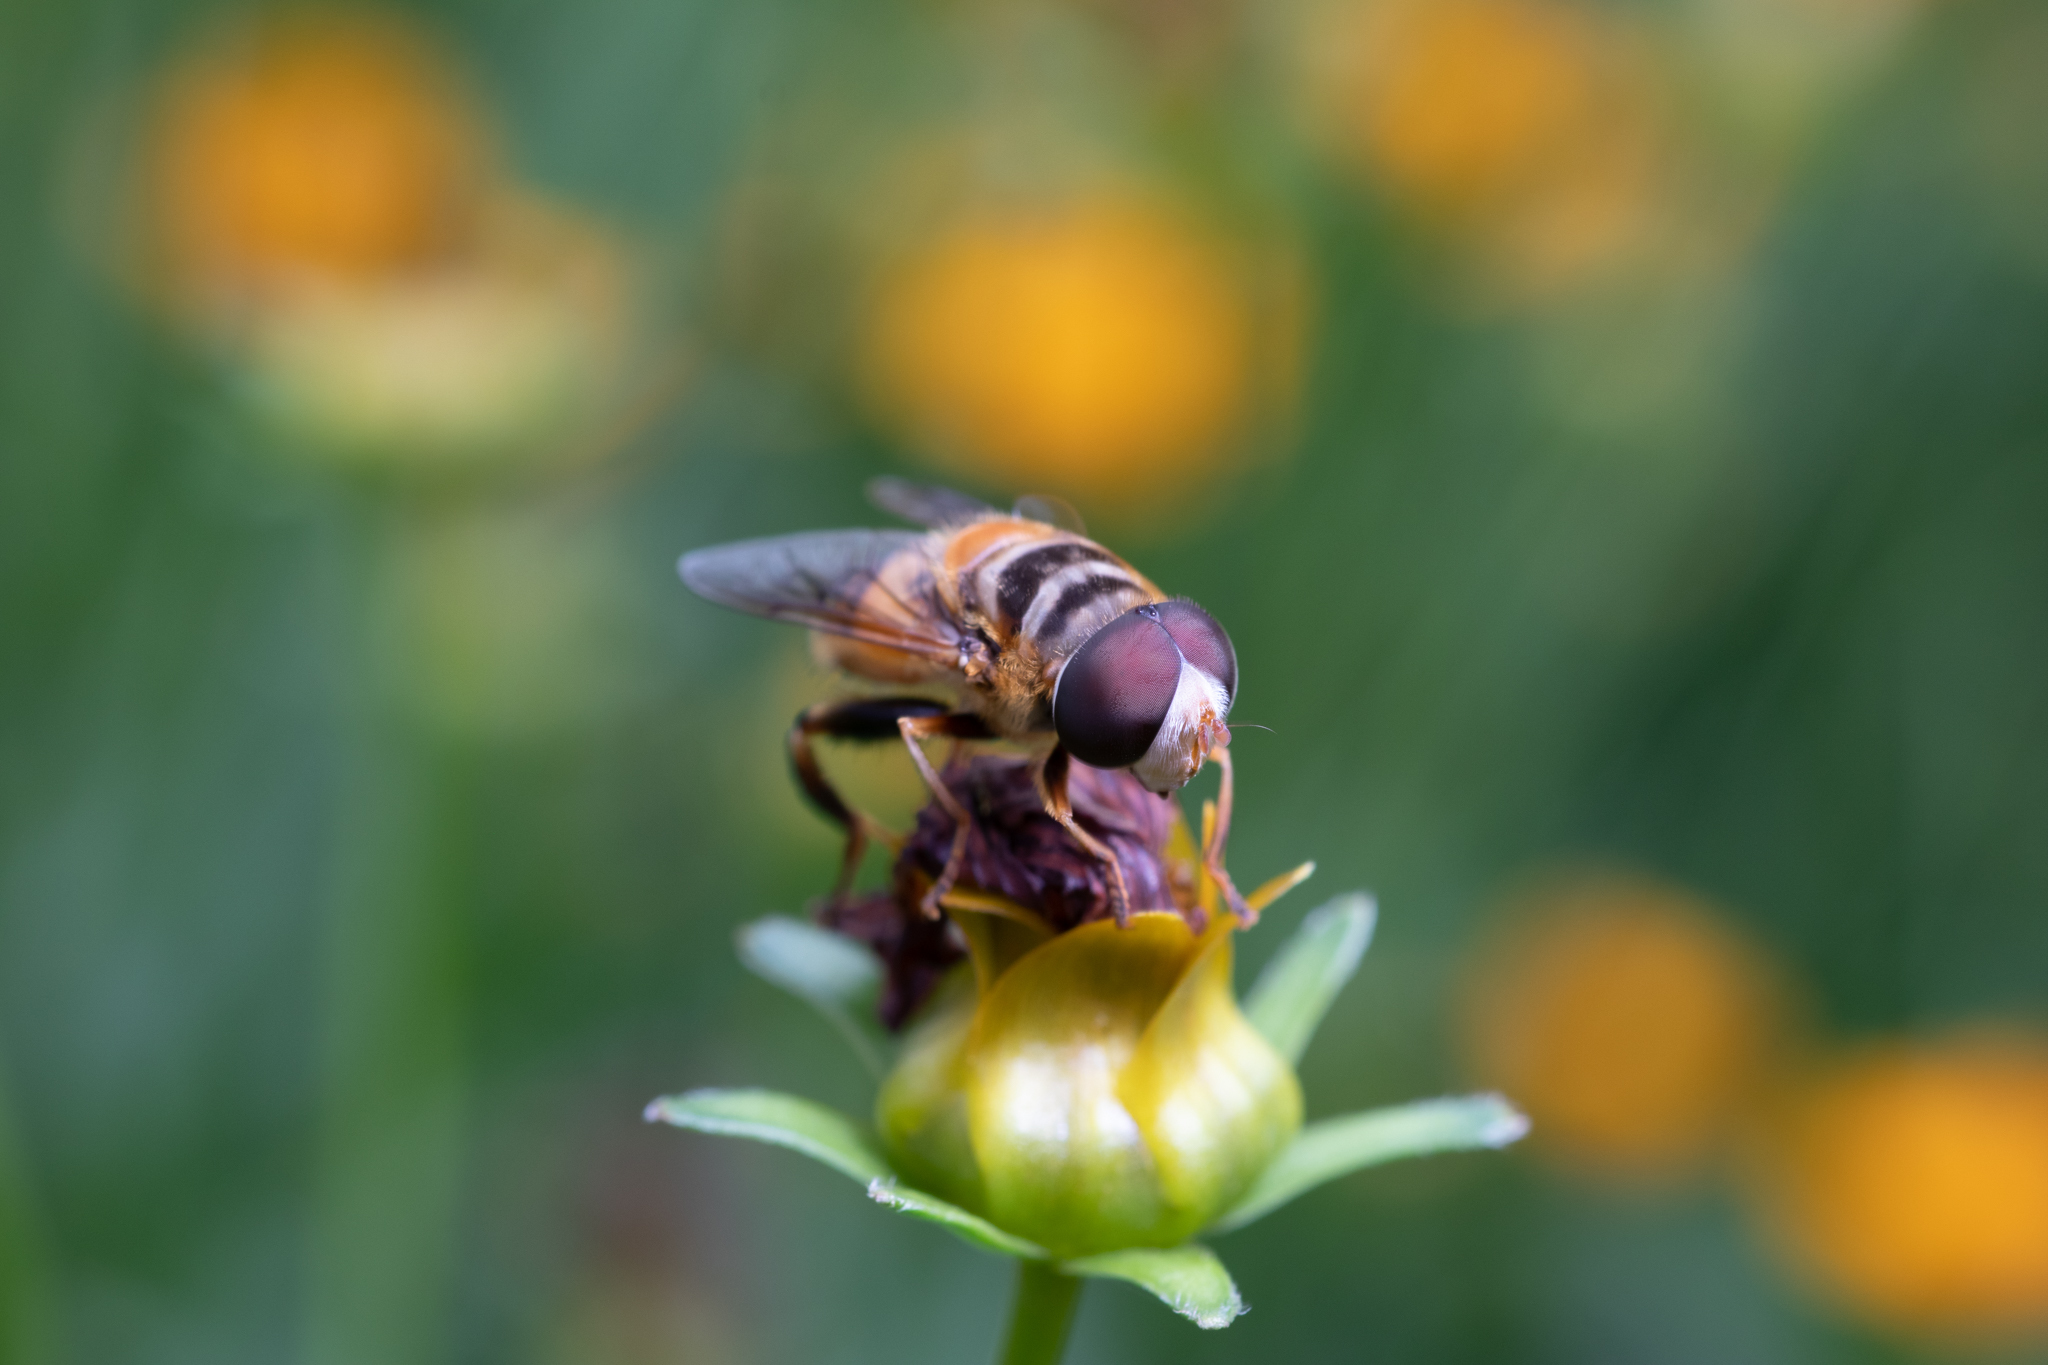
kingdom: Animalia
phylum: Arthropoda
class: Insecta
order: Diptera
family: Syrphidae
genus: Palpada
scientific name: Palpada vinetorum
